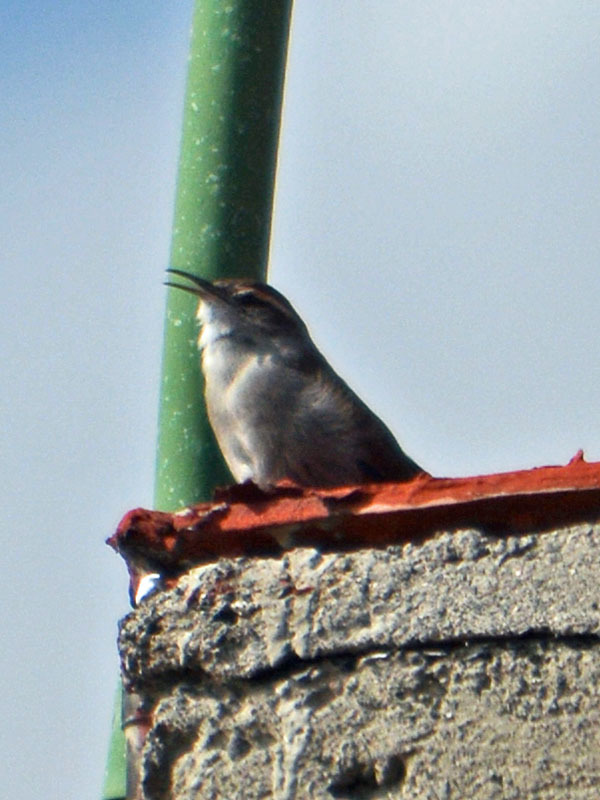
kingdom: Animalia
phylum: Chordata
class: Aves
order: Passeriformes
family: Troglodytidae
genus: Thryomanes
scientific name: Thryomanes bewickii
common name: Bewick's wren
